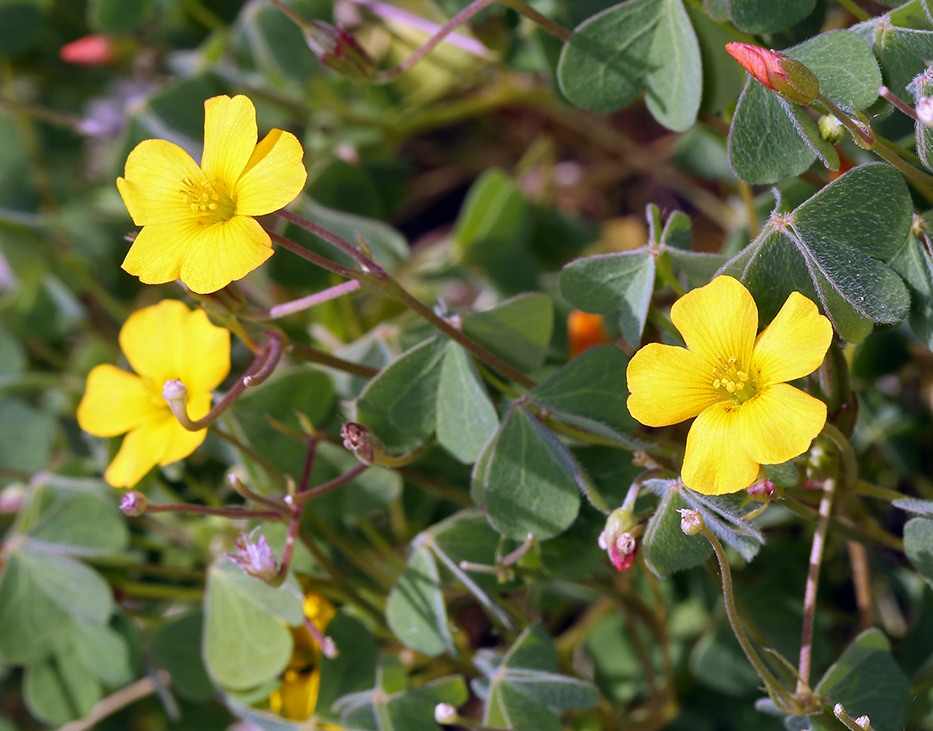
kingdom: Plantae
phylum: Tracheophyta
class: Magnoliopsida
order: Oxalidales
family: Oxalidaceae
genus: Oxalis
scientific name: Oxalis californica
